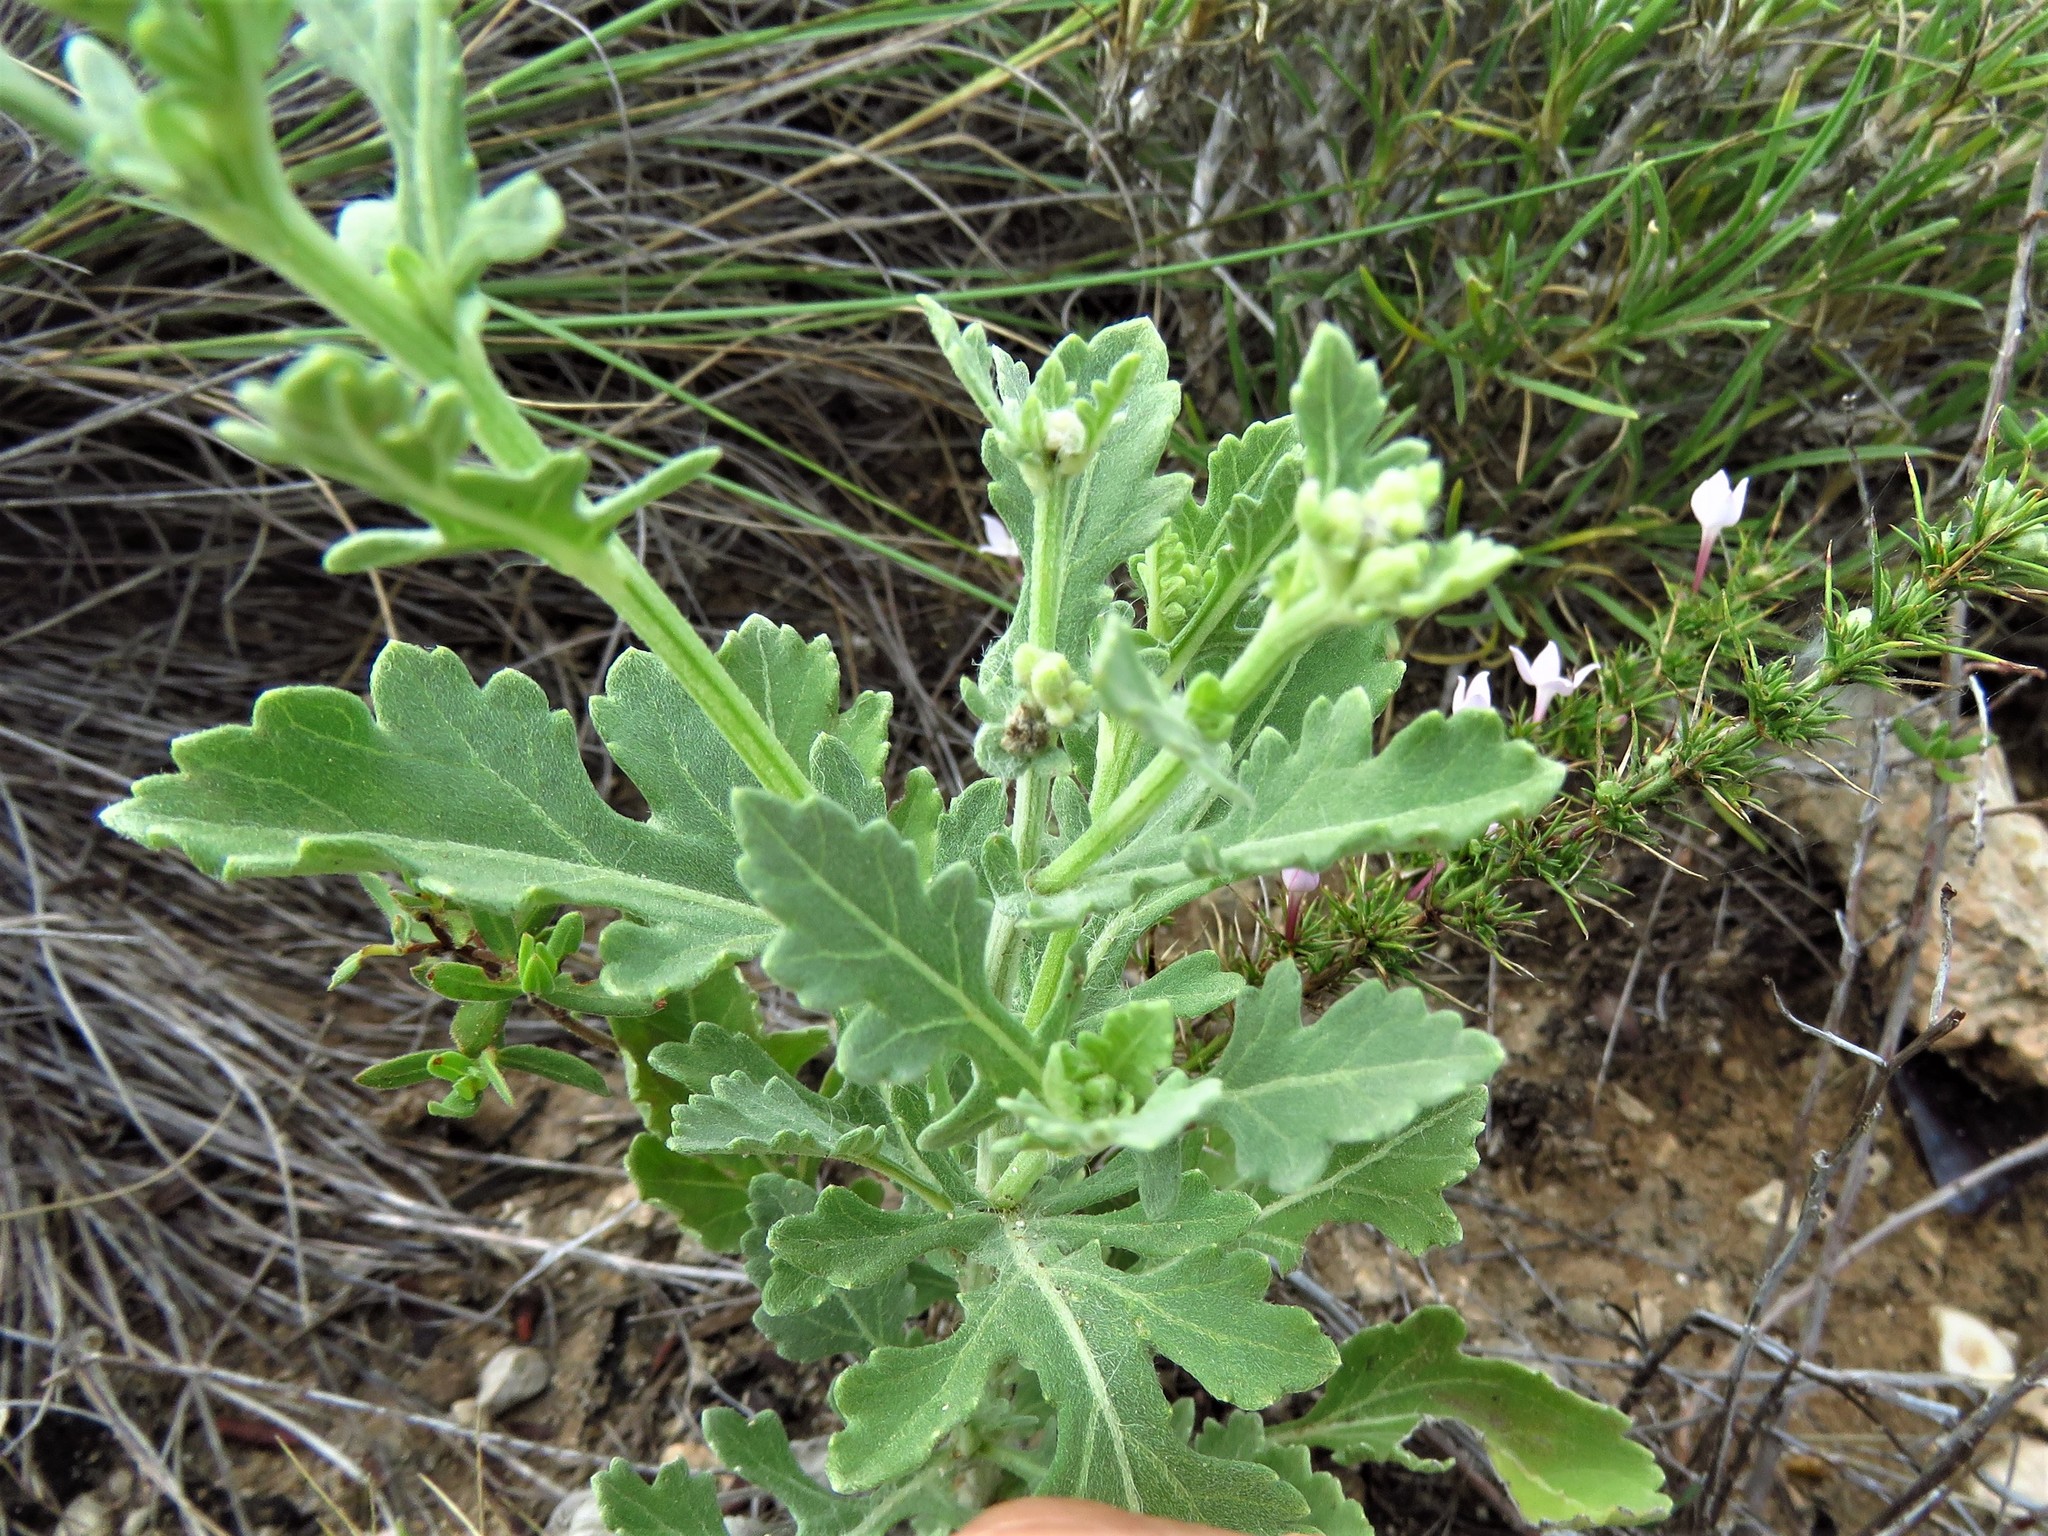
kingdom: Plantae
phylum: Tracheophyta
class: Magnoliopsida
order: Asterales
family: Asteraceae
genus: Parthenium
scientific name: Parthenium confertum
